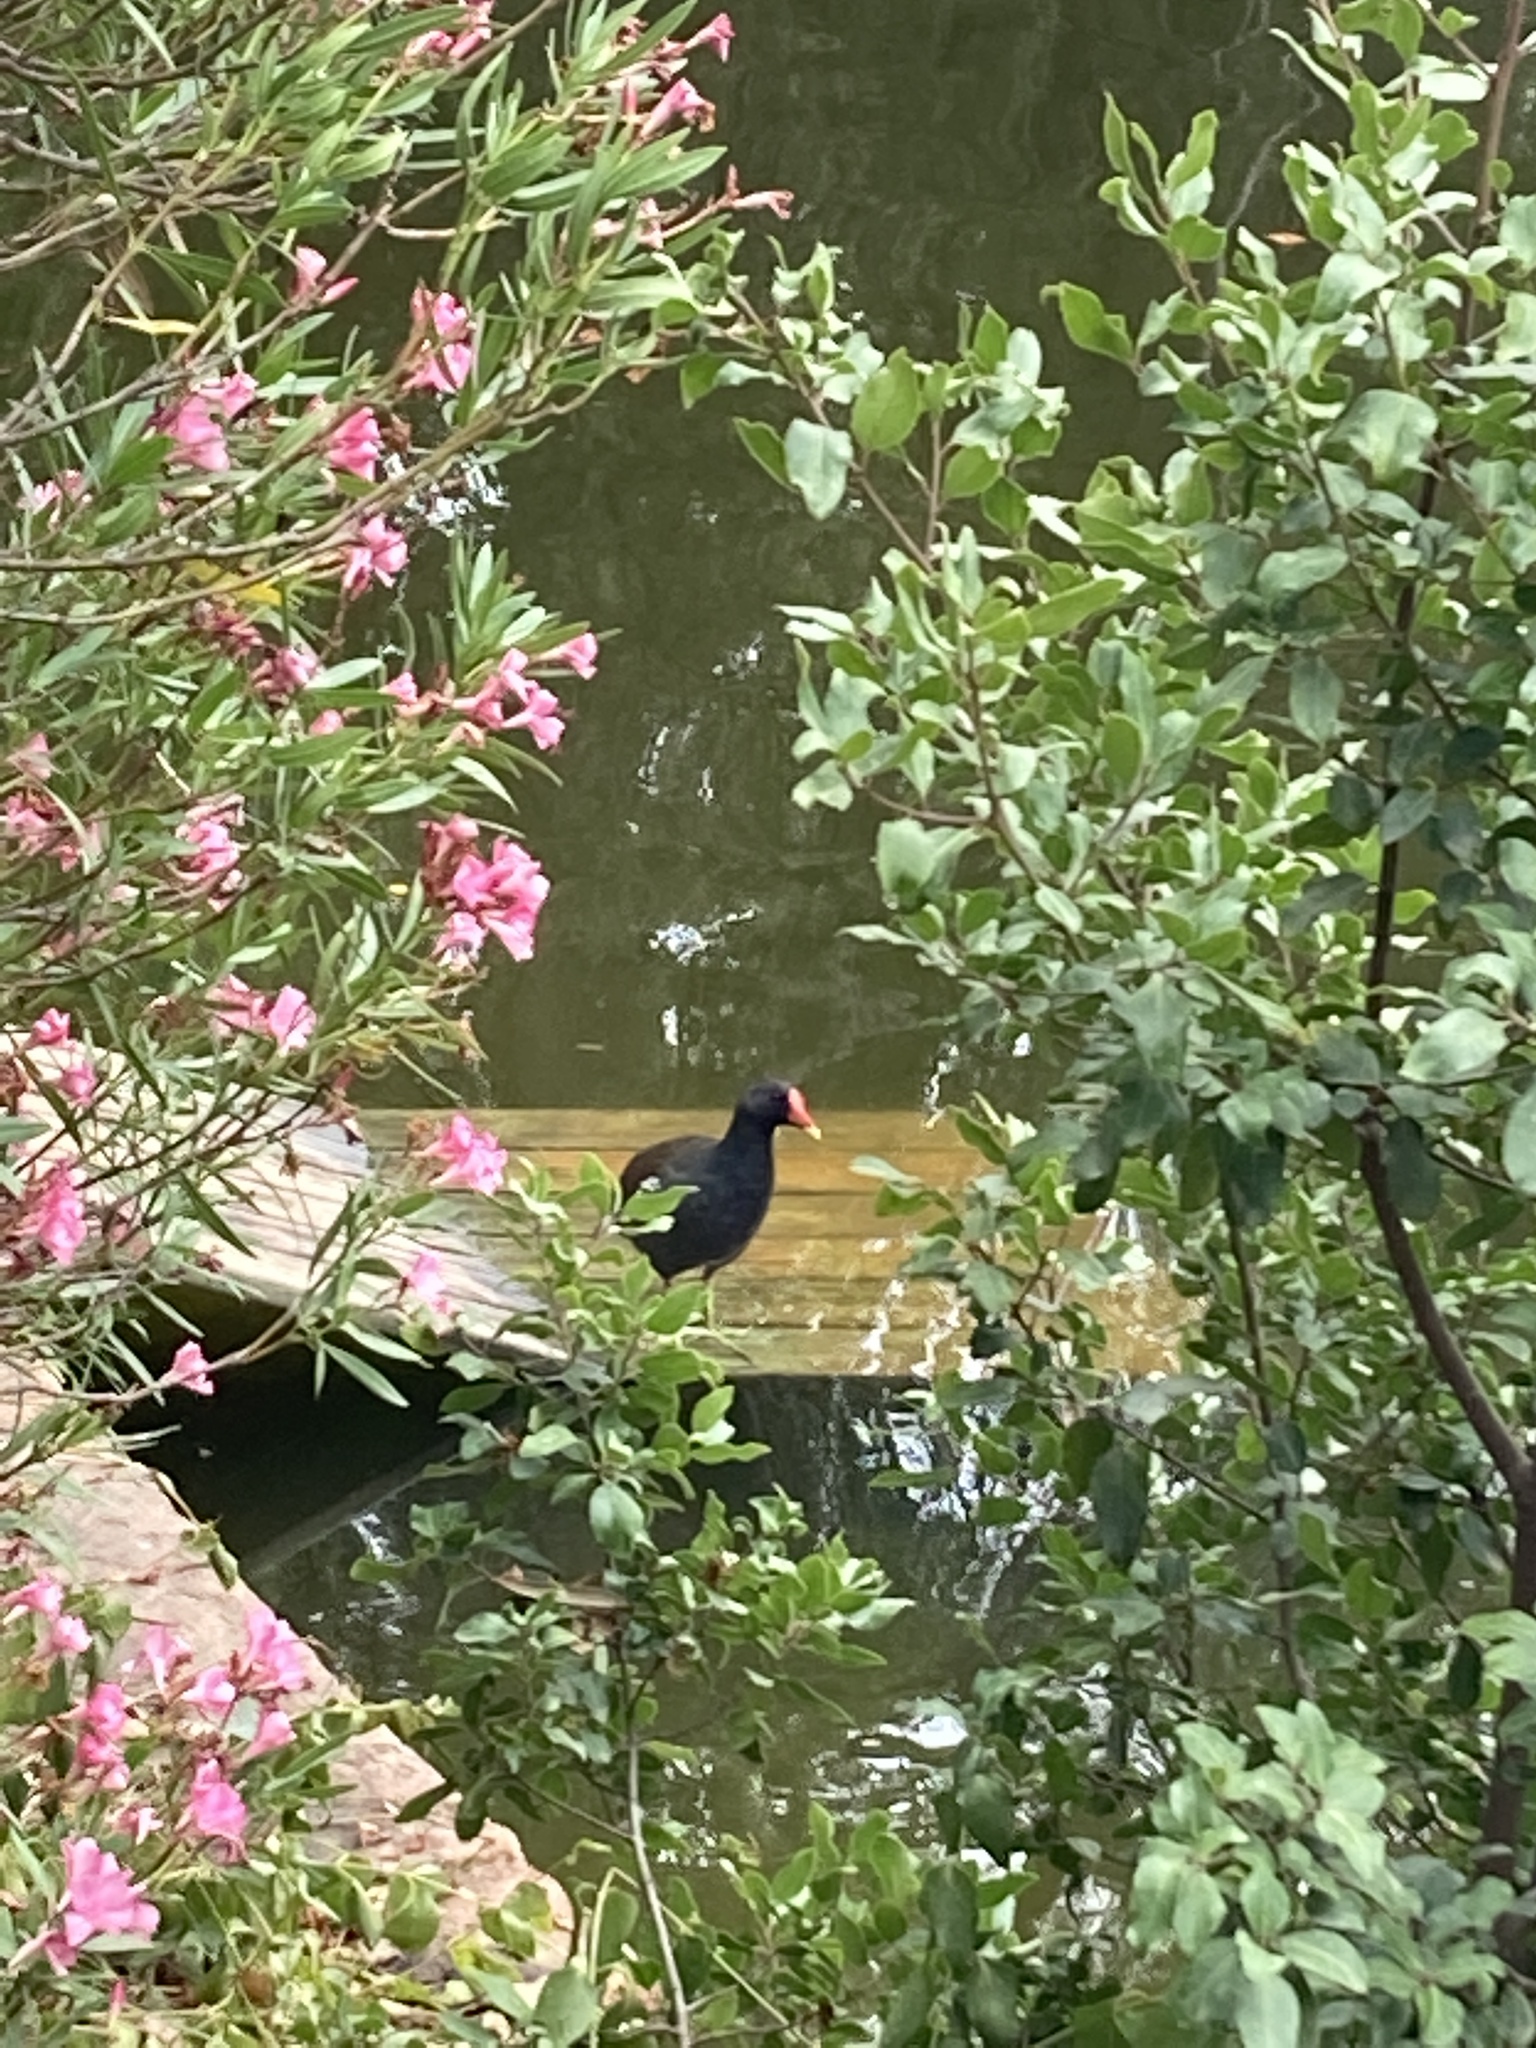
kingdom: Animalia
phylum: Chordata
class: Aves
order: Gruiformes
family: Rallidae
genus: Gallinula
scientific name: Gallinula chloropus
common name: Common moorhen
